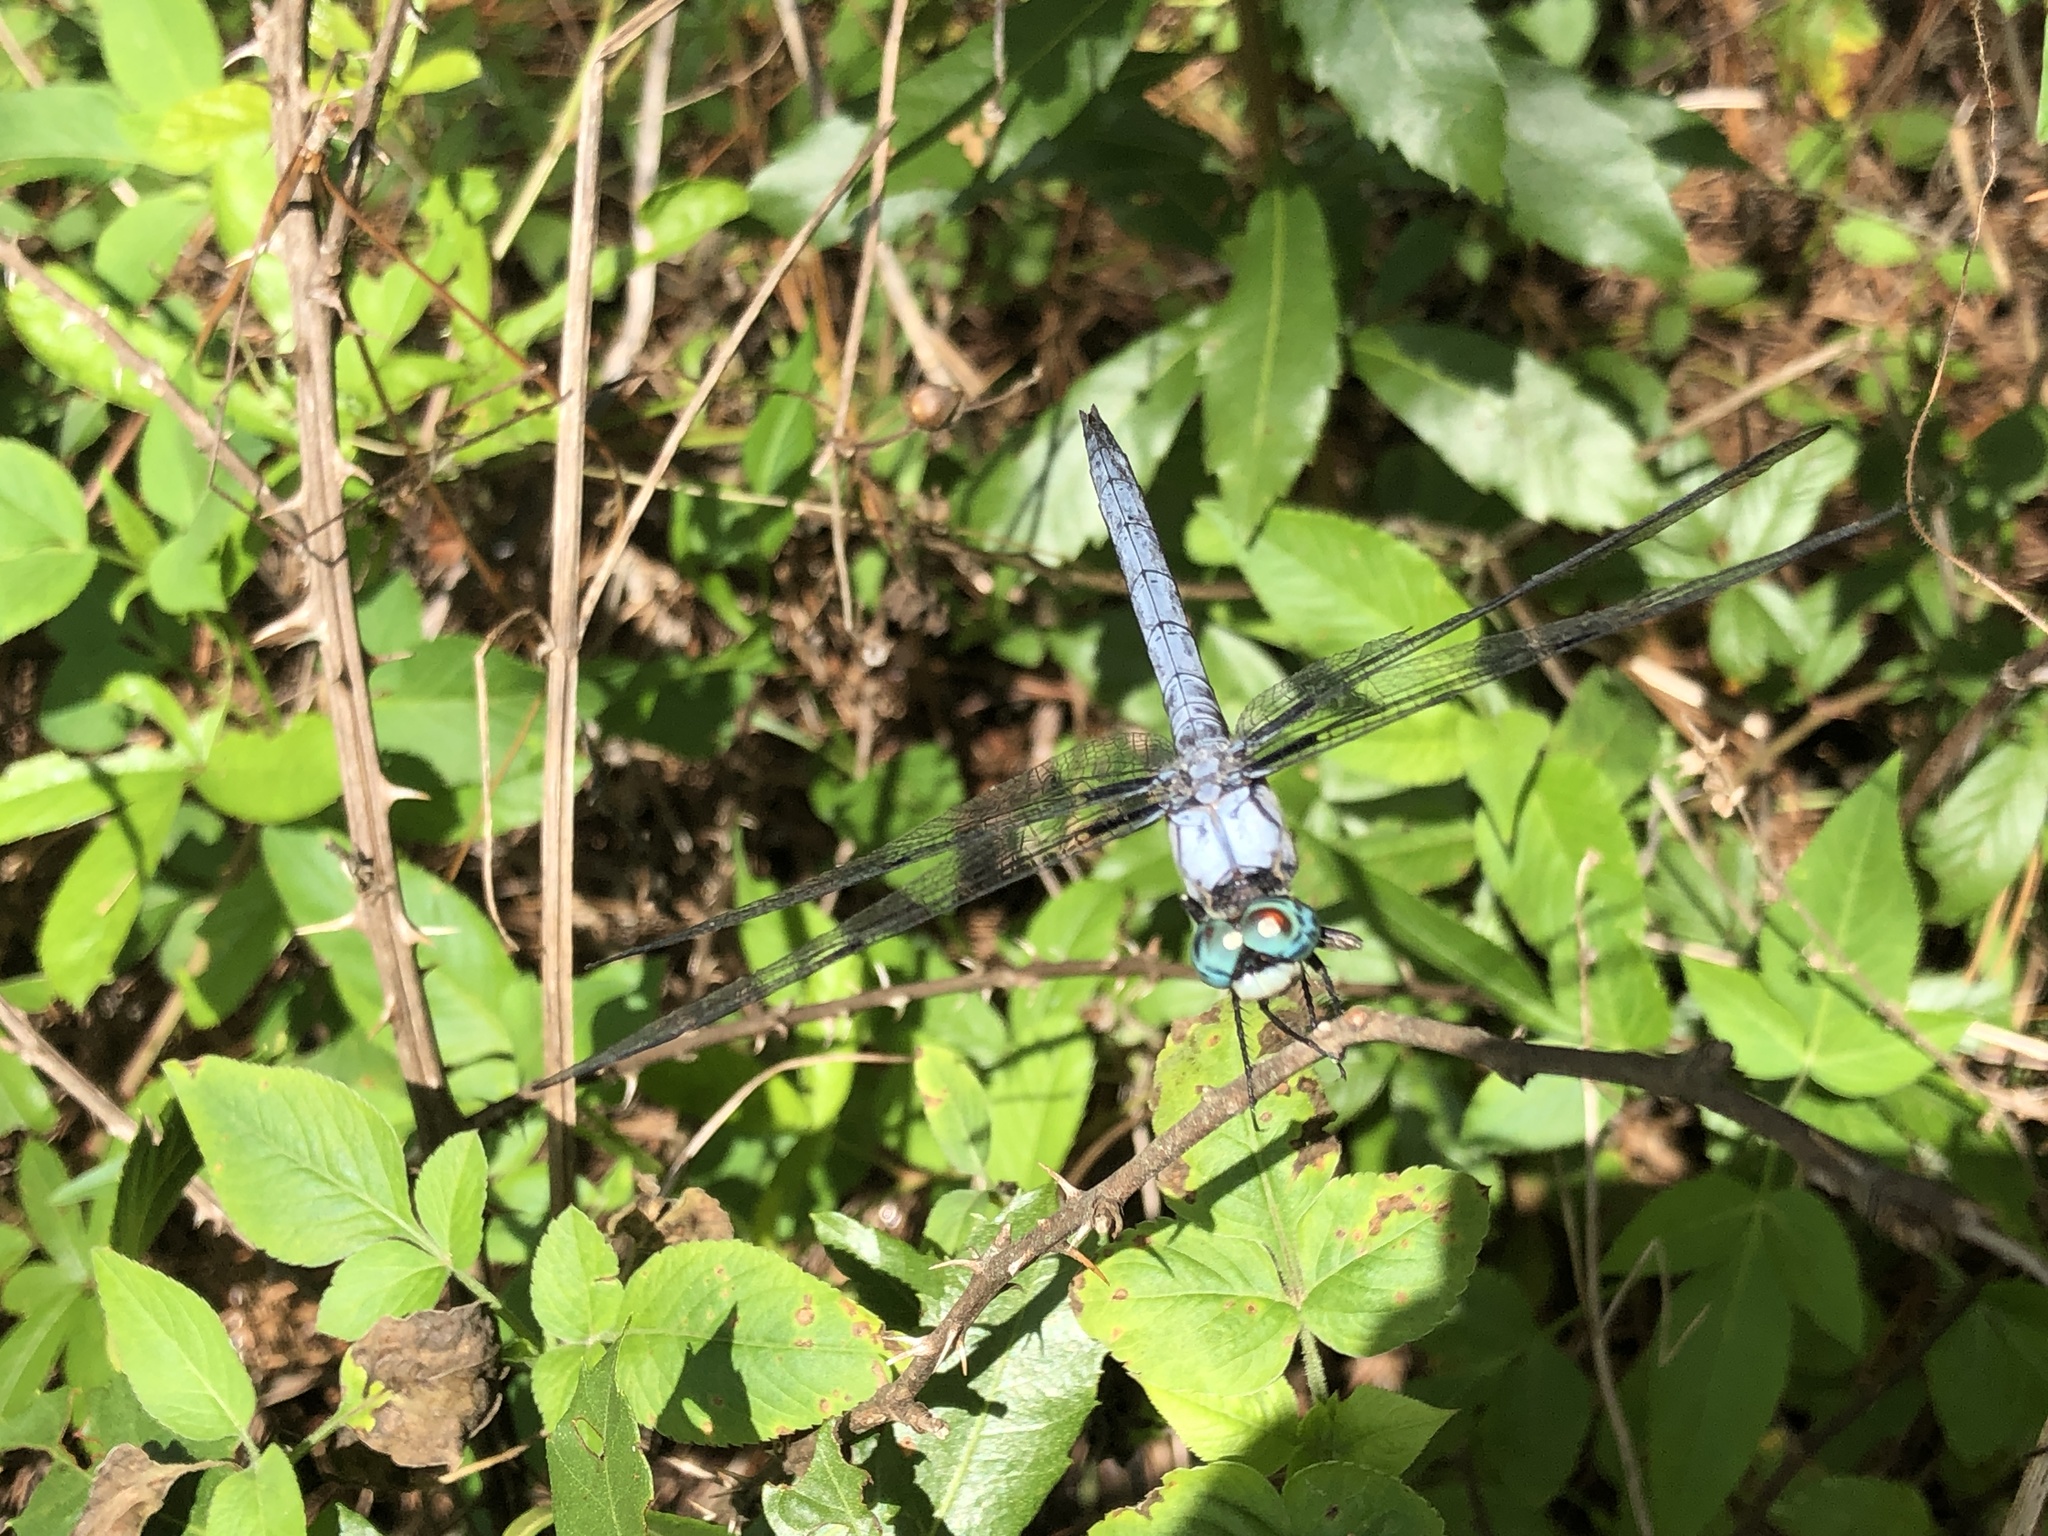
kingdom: Animalia
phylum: Arthropoda
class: Insecta
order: Odonata
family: Libellulidae
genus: Libellula
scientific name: Libellula vibrans
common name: Great blue skimmer
